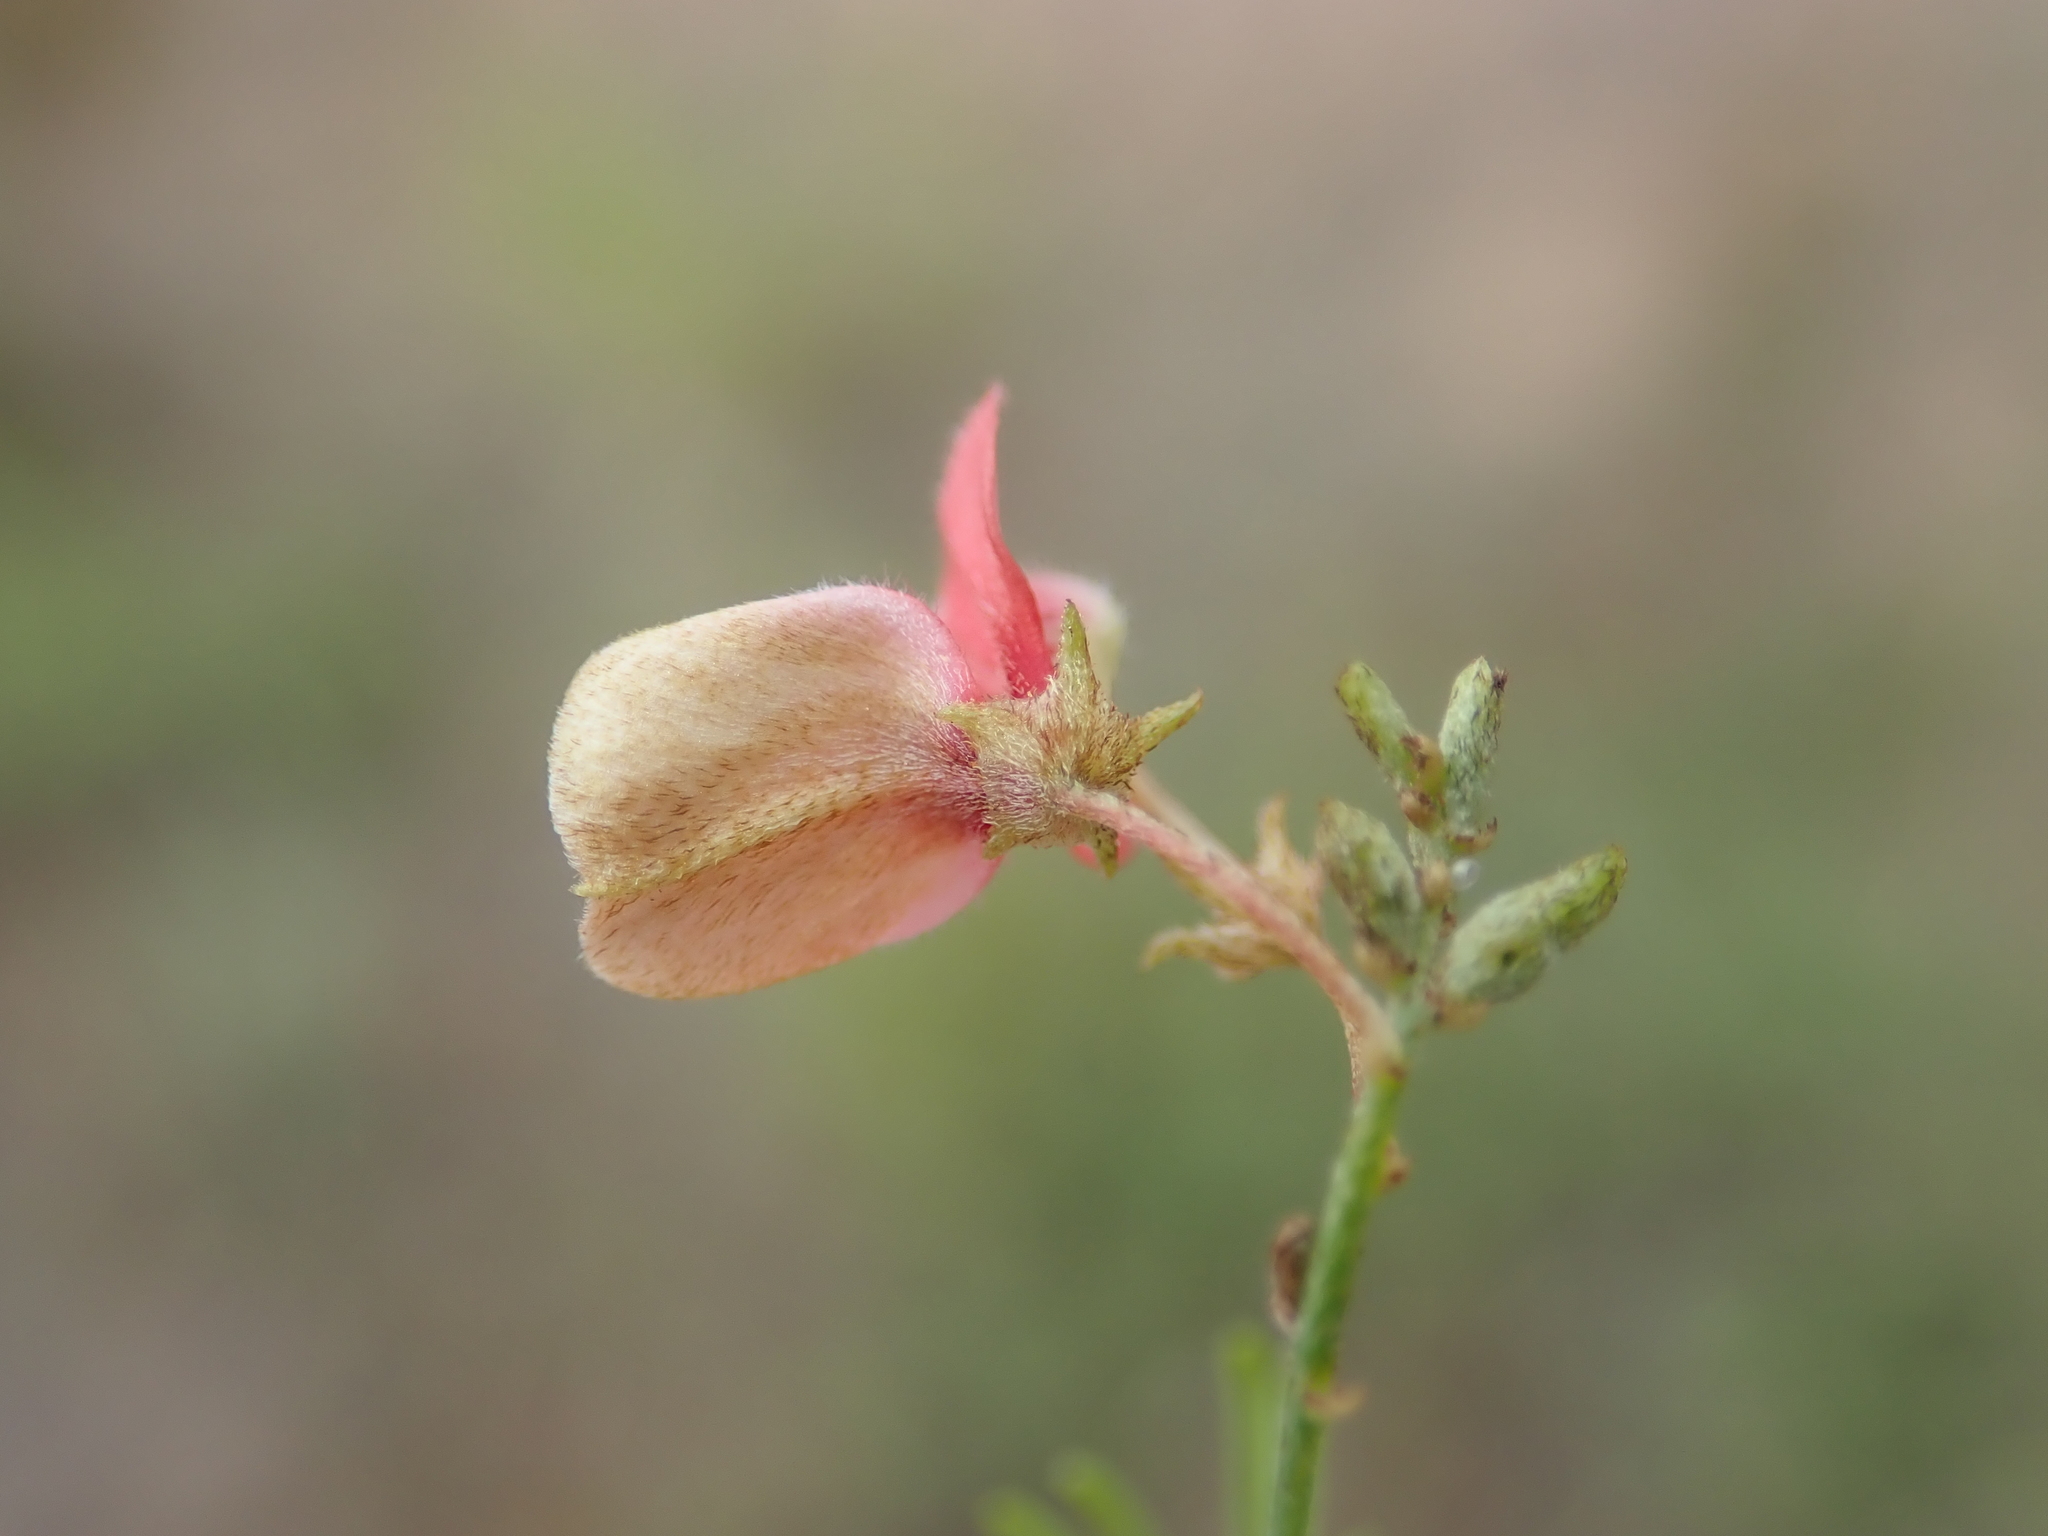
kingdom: Plantae
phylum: Tracheophyta
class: Magnoliopsida
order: Fabales
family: Fabaceae
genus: Indigofera
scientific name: Indigofera verrucosa
